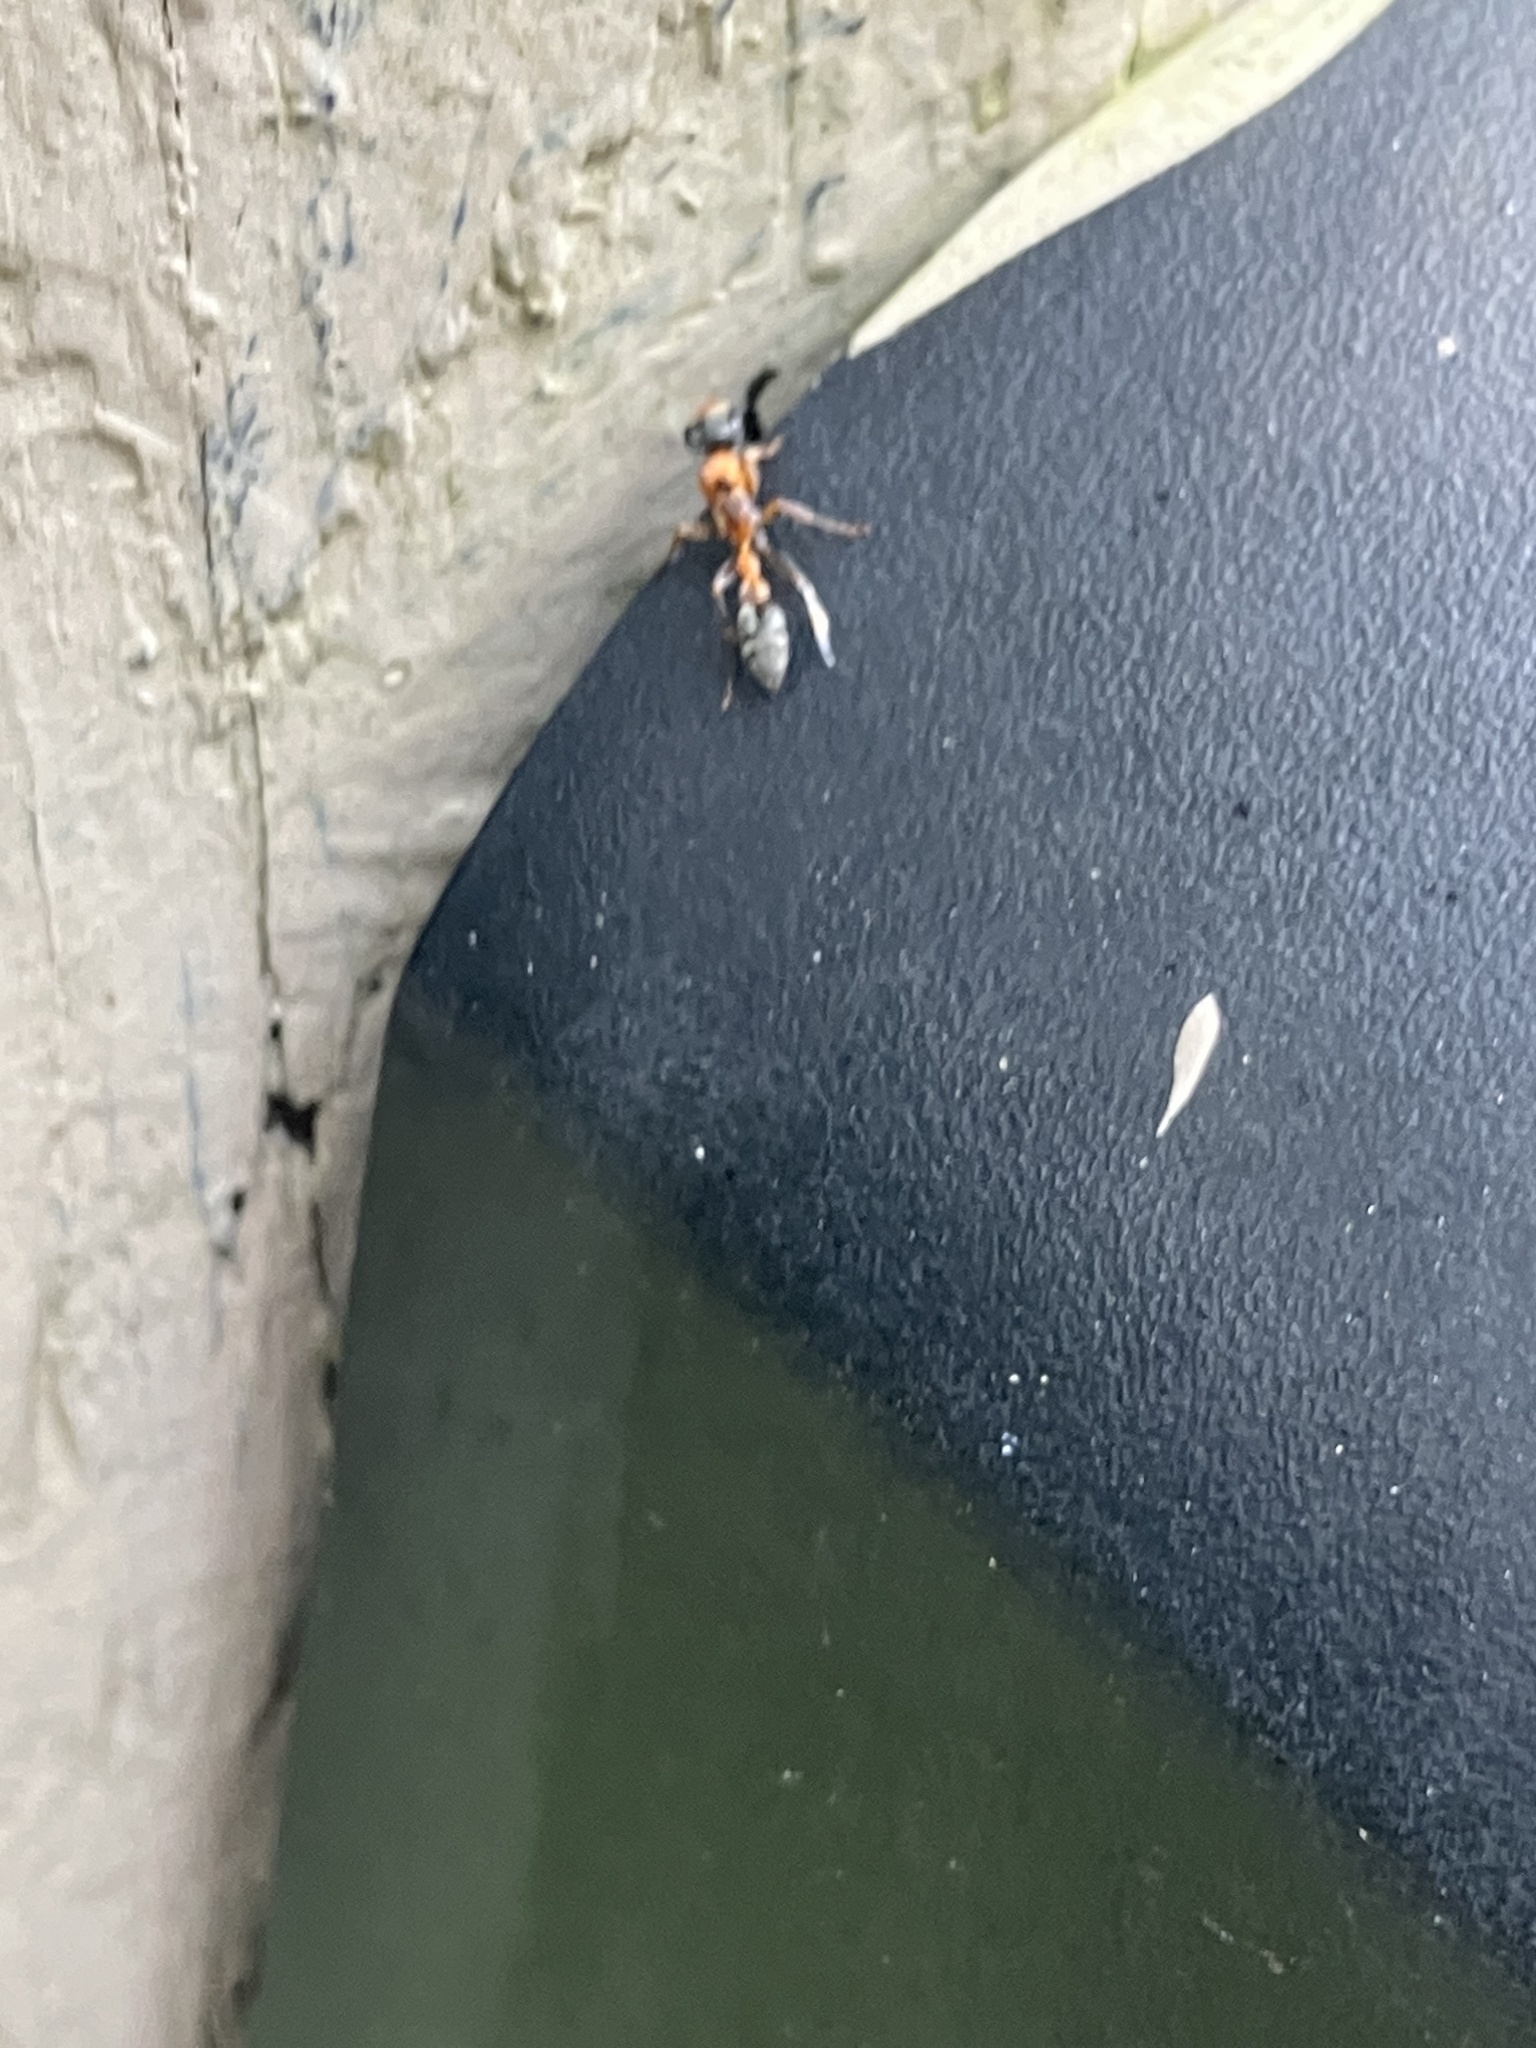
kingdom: Animalia
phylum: Arthropoda
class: Insecta
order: Hymenoptera
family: Formicidae
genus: Pseudomyrmex
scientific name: Pseudomyrmex gracilis
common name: Graceful twig ant
